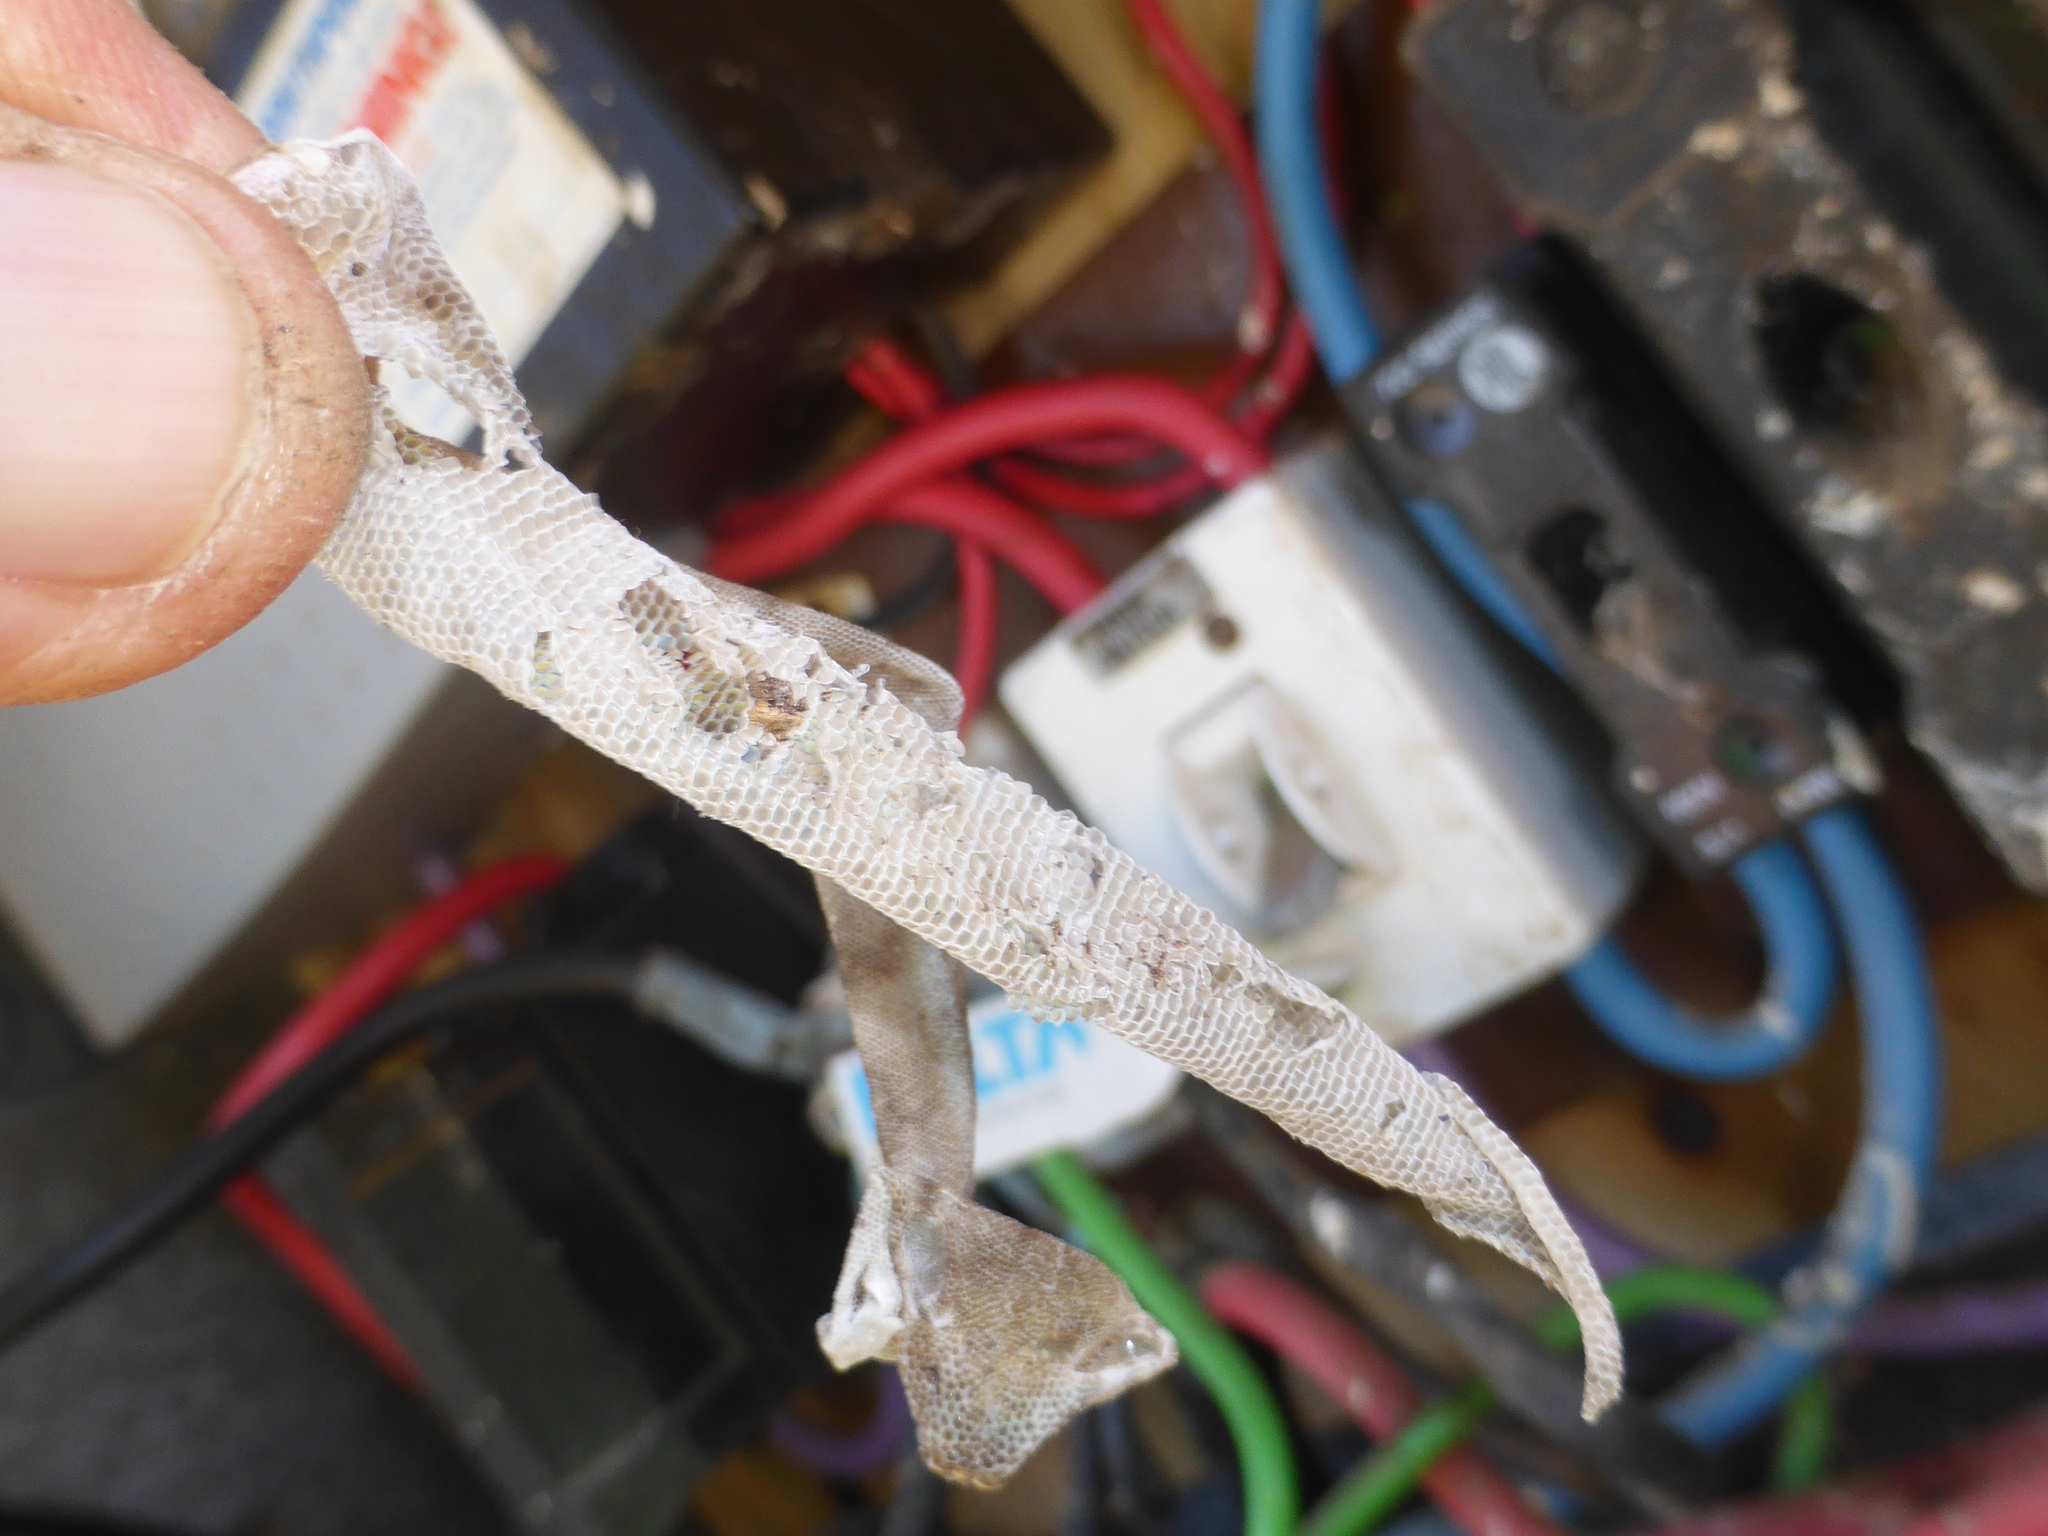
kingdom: Animalia
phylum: Chordata
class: Squamata
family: Diplodactylidae
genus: Woodworthia
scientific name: Woodworthia brunnea
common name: Canterbury gecko
